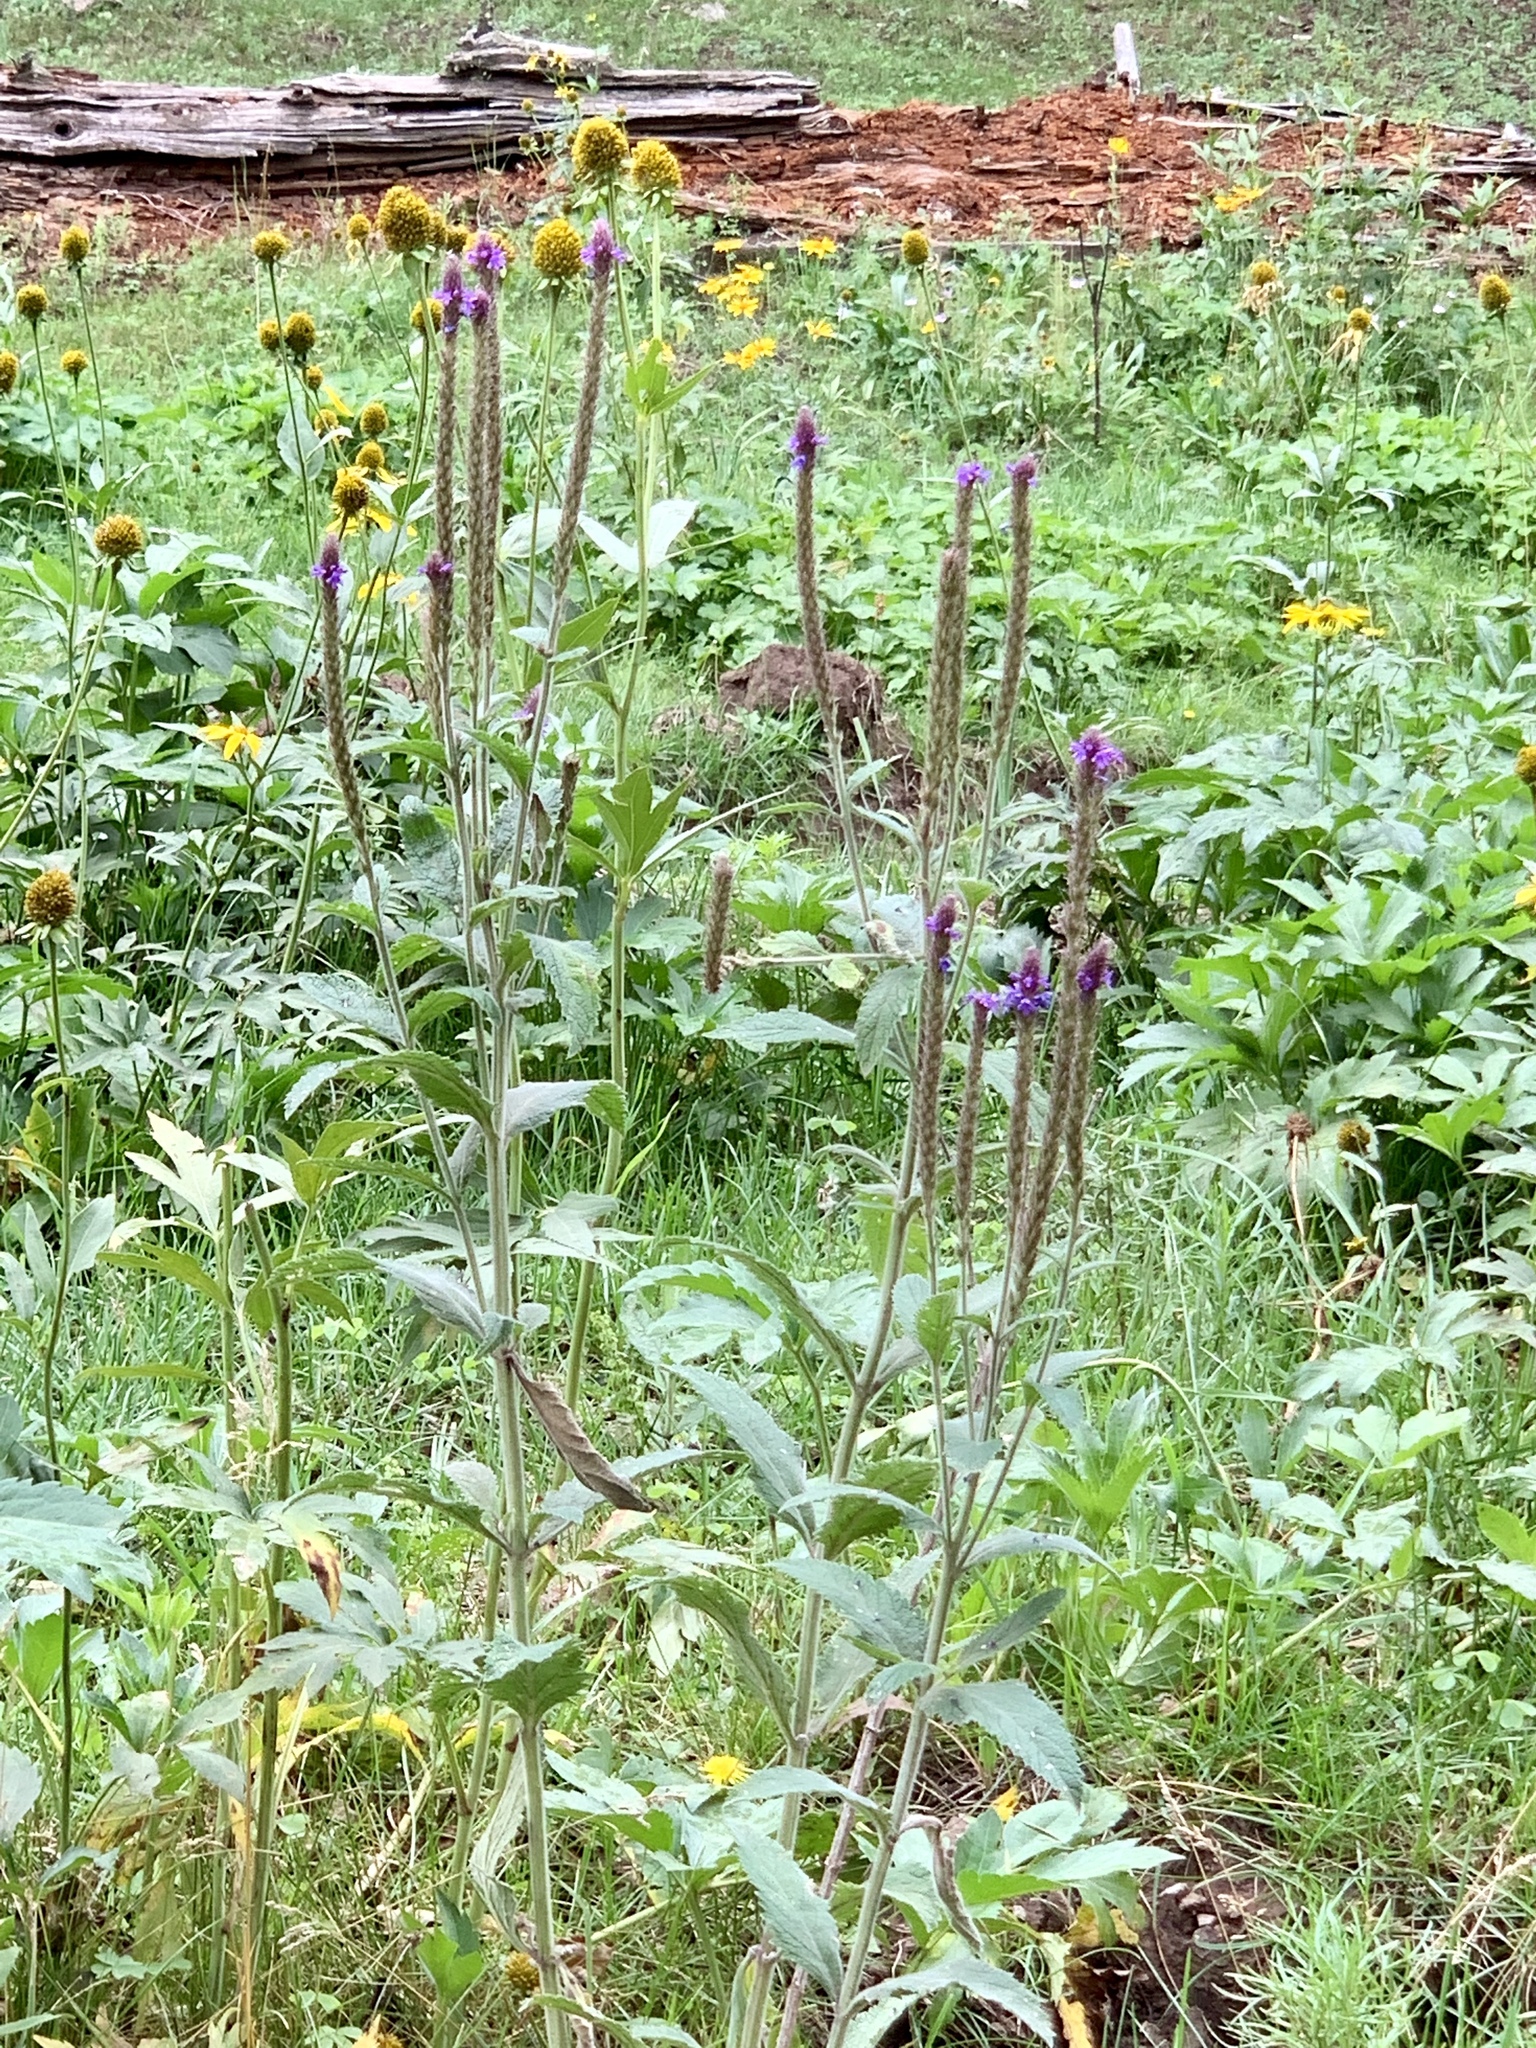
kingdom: Plantae
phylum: Tracheophyta
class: Magnoliopsida
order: Lamiales
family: Verbenaceae
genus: Verbena
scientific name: Verbena macdougalii
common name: New mexico vervain
